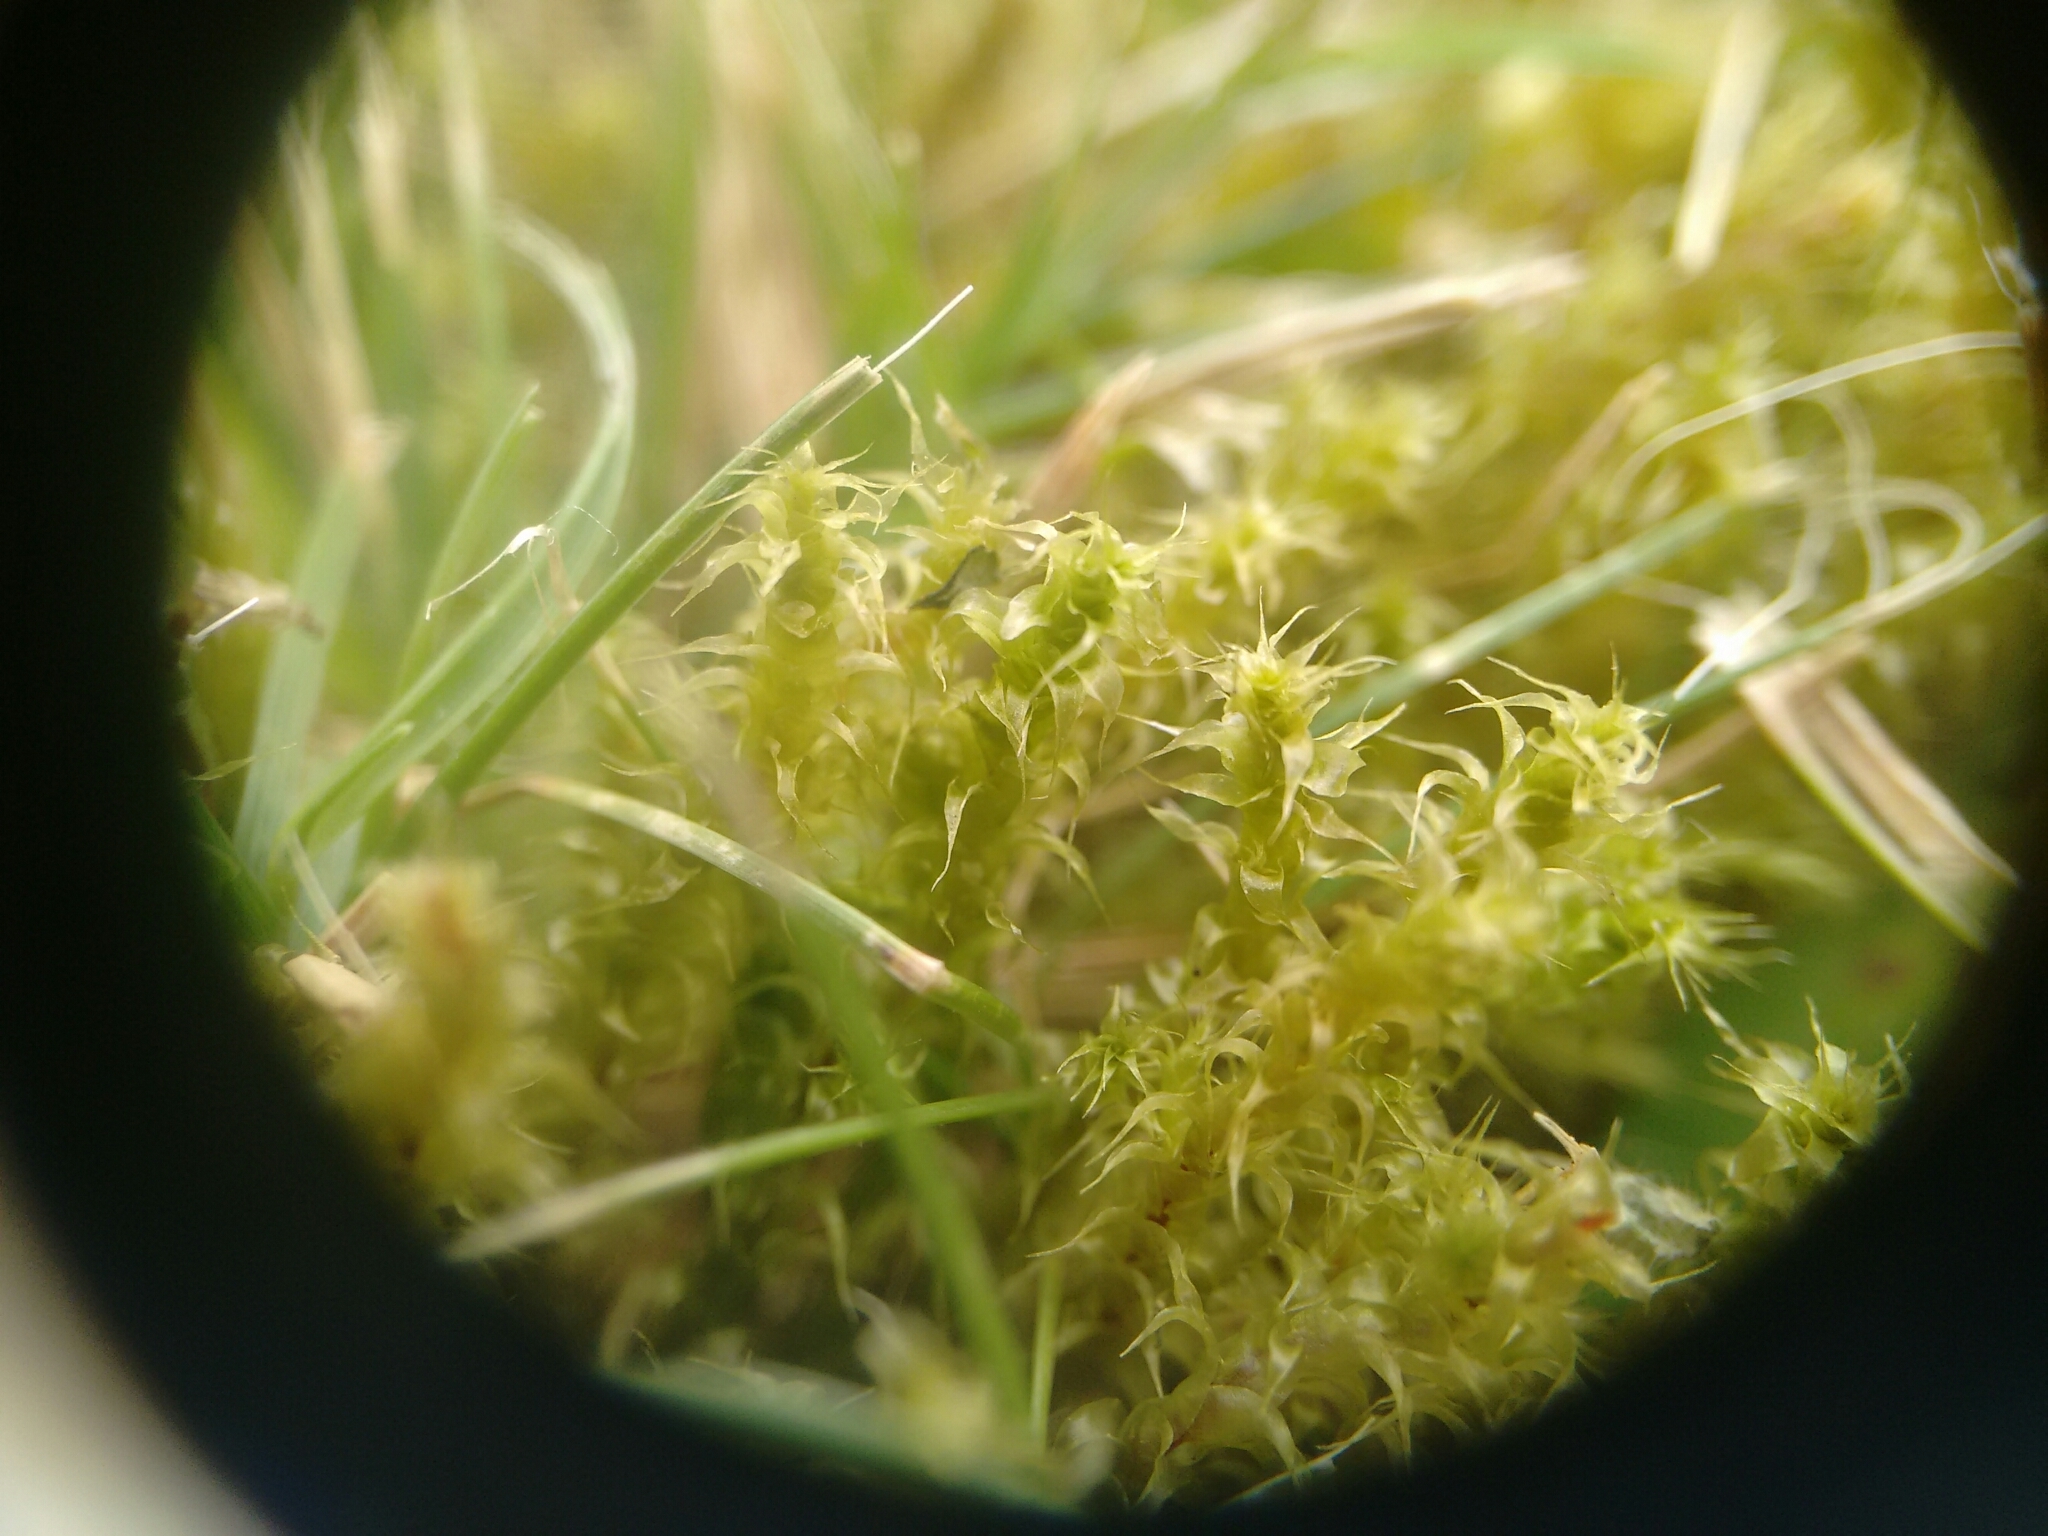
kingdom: Plantae
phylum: Bryophyta
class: Bryopsida
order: Hypnales
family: Hylocomiaceae
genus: Rhytidiadelphus
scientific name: Rhytidiadelphus squarrosus
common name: Springy turf-moss
